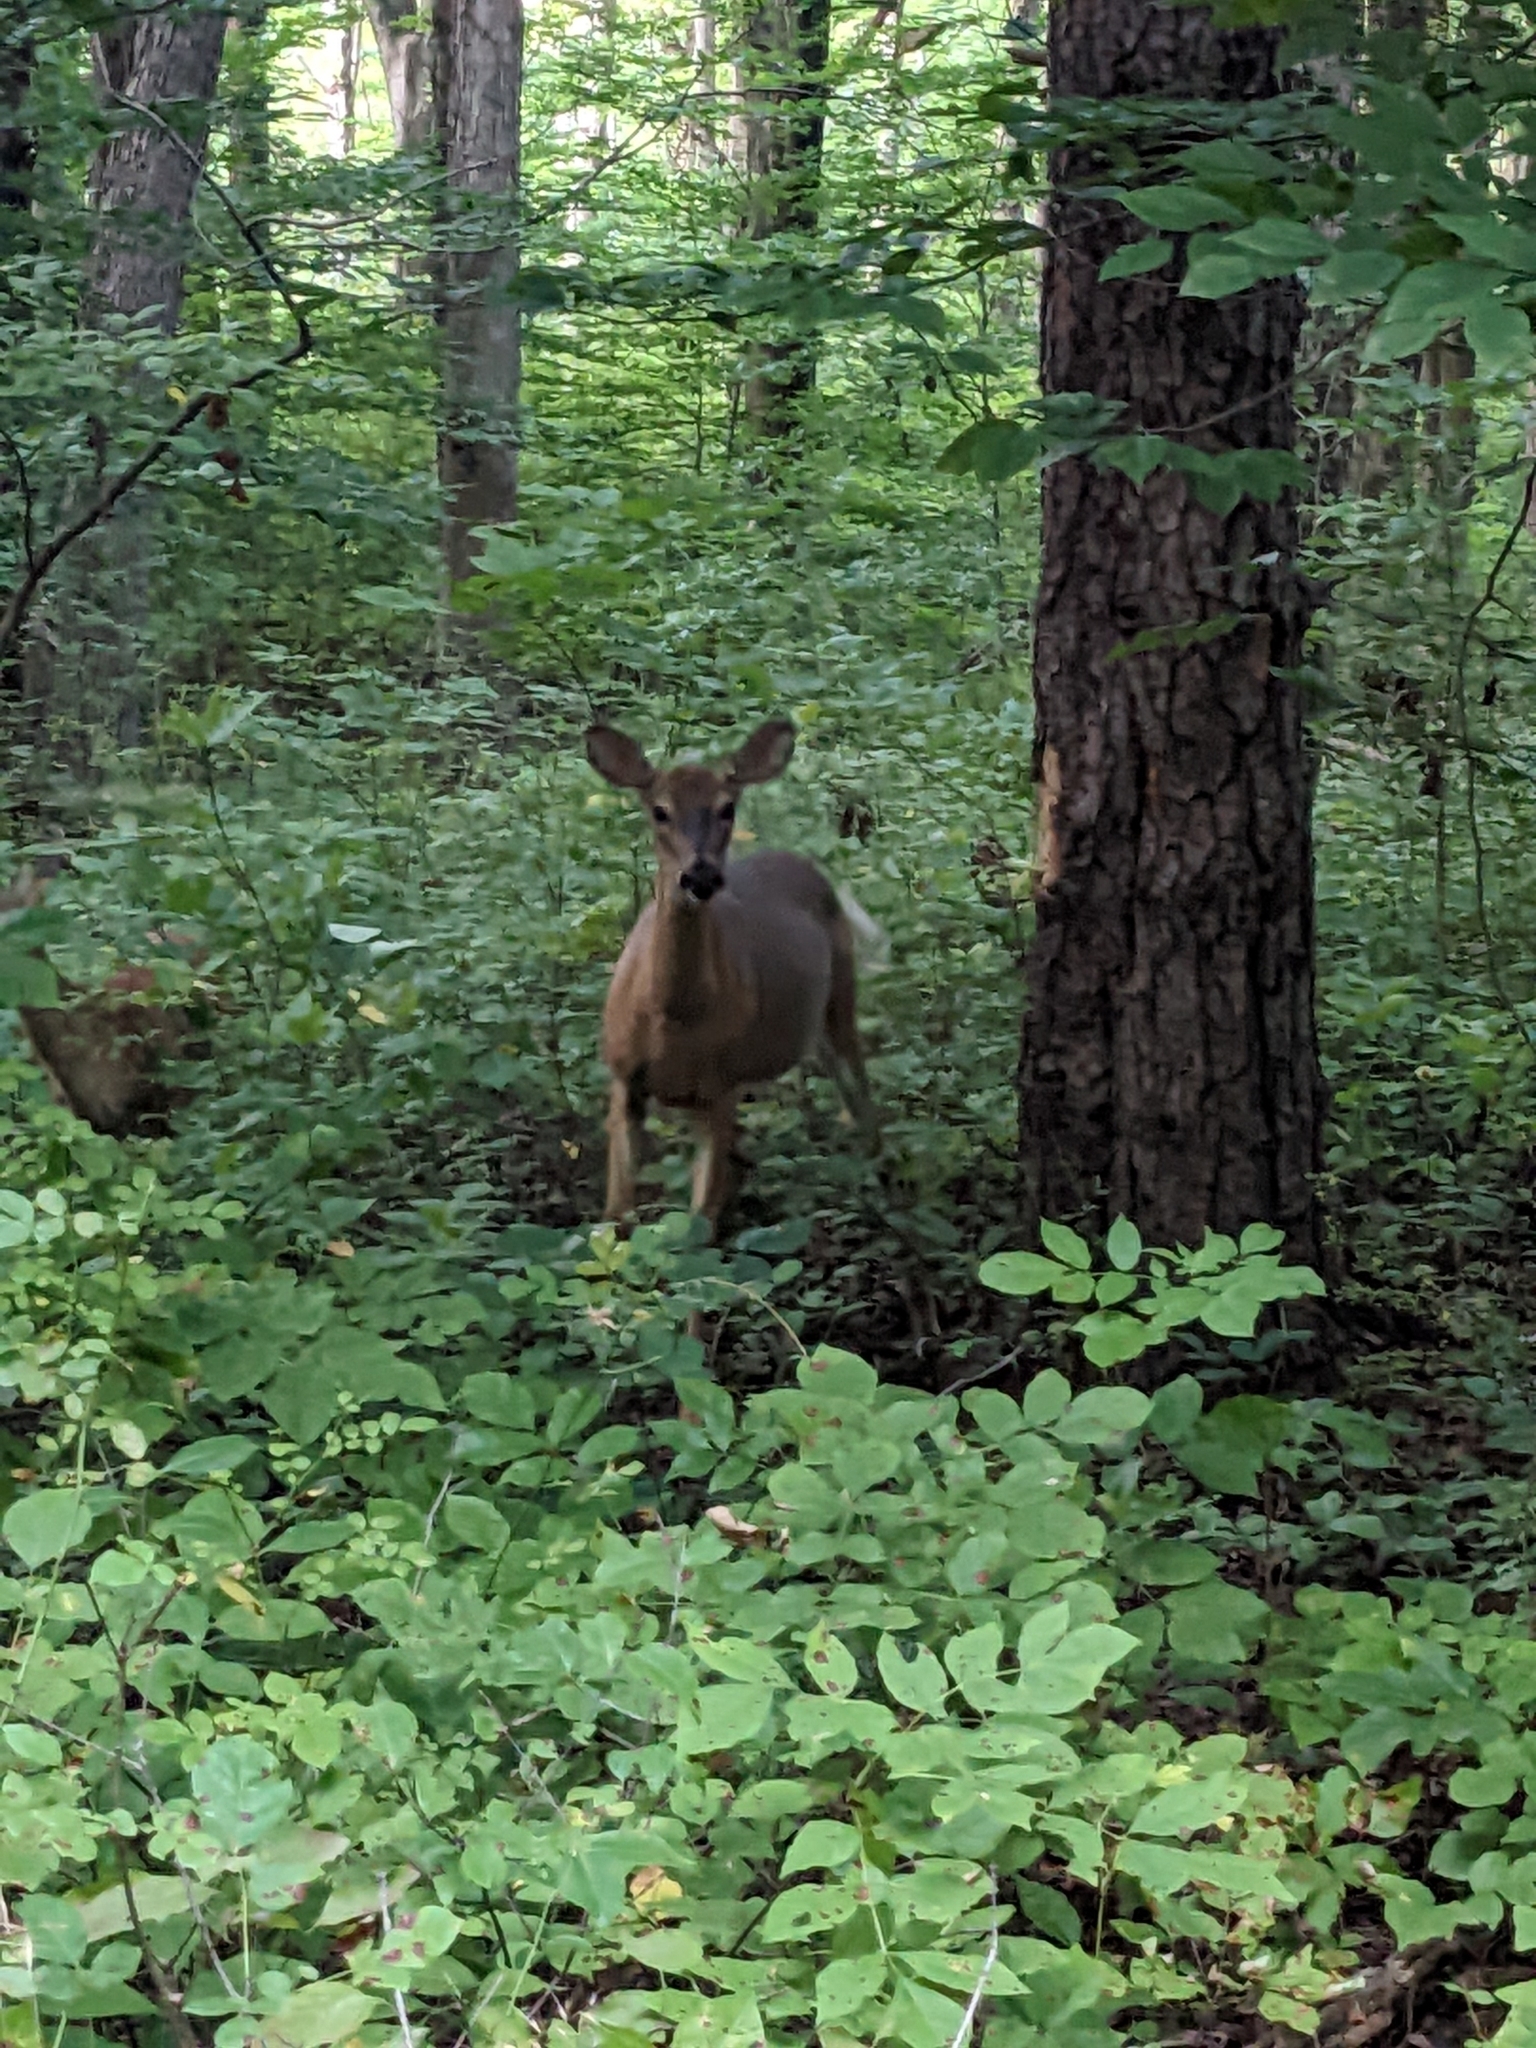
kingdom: Animalia
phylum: Chordata
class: Mammalia
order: Artiodactyla
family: Cervidae
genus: Odocoileus
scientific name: Odocoileus virginianus
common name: White-tailed deer
